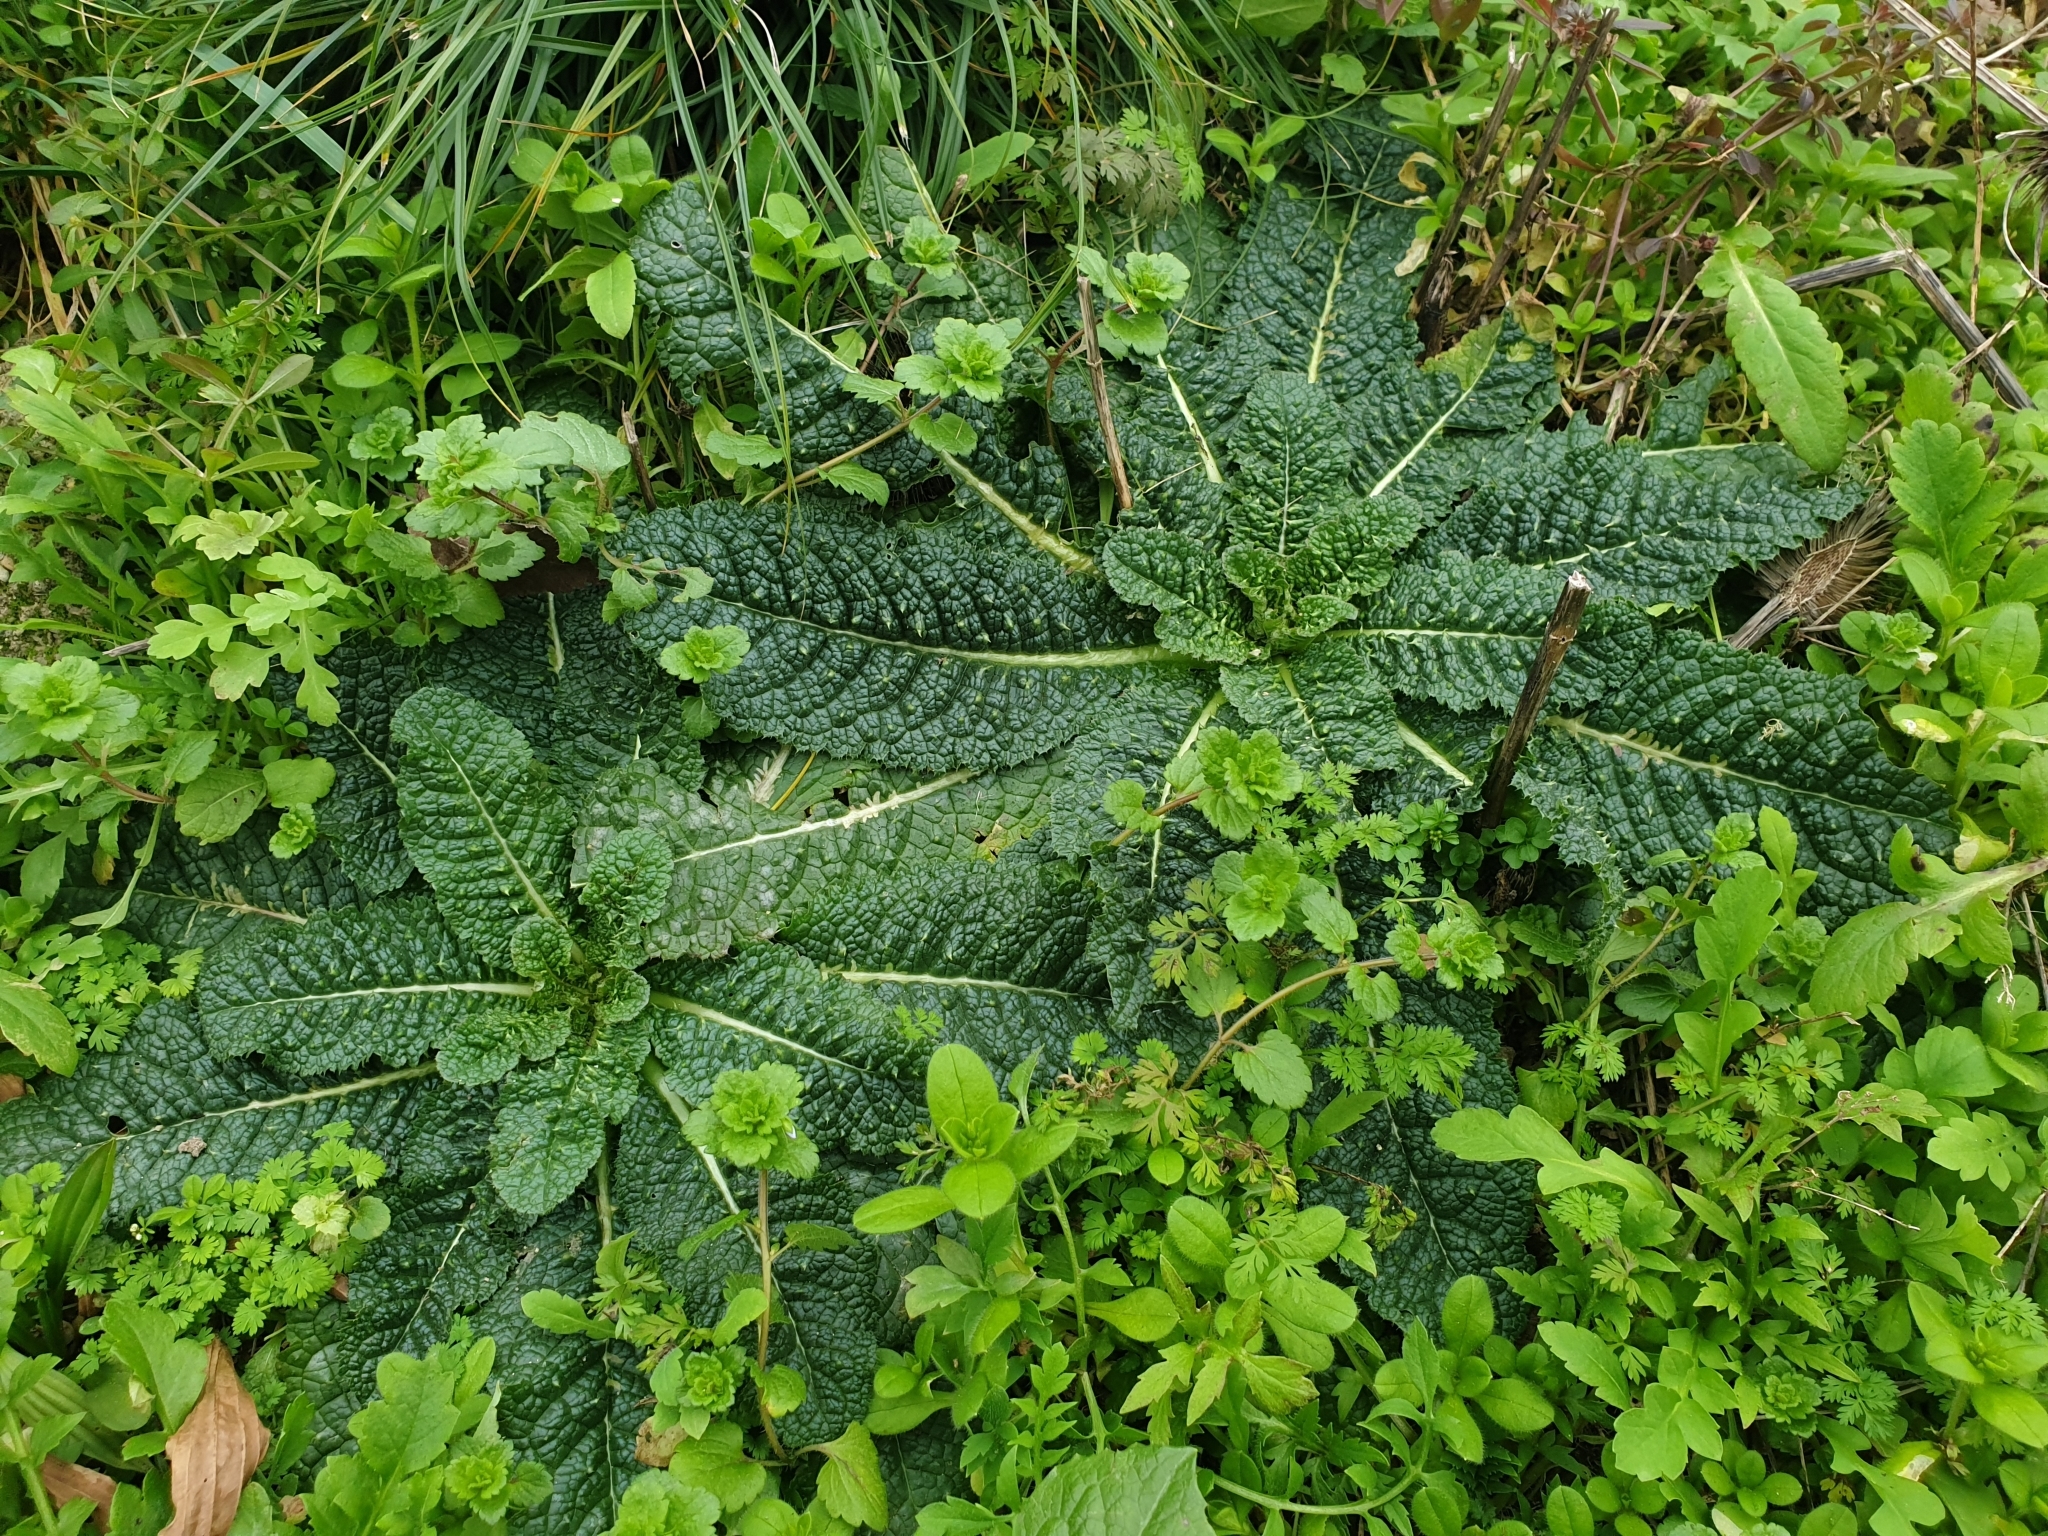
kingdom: Plantae
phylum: Tracheophyta
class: Magnoliopsida
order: Dipsacales
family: Caprifoliaceae
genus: Dipsacus
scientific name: Dipsacus fullonum
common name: Teasel
